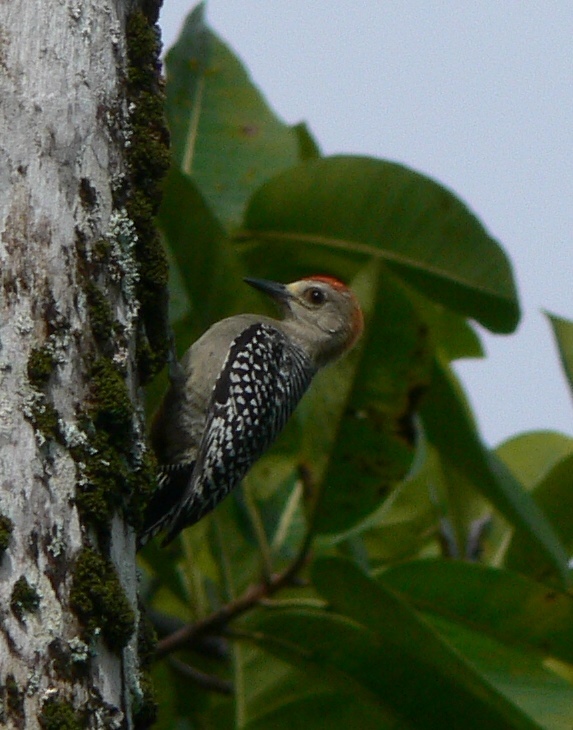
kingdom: Animalia
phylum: Chordata
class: Aves
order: Piciformes
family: Picidae
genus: Melanerpes
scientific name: Melanerpes rubricapillus
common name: Red-crowned woodpecker
